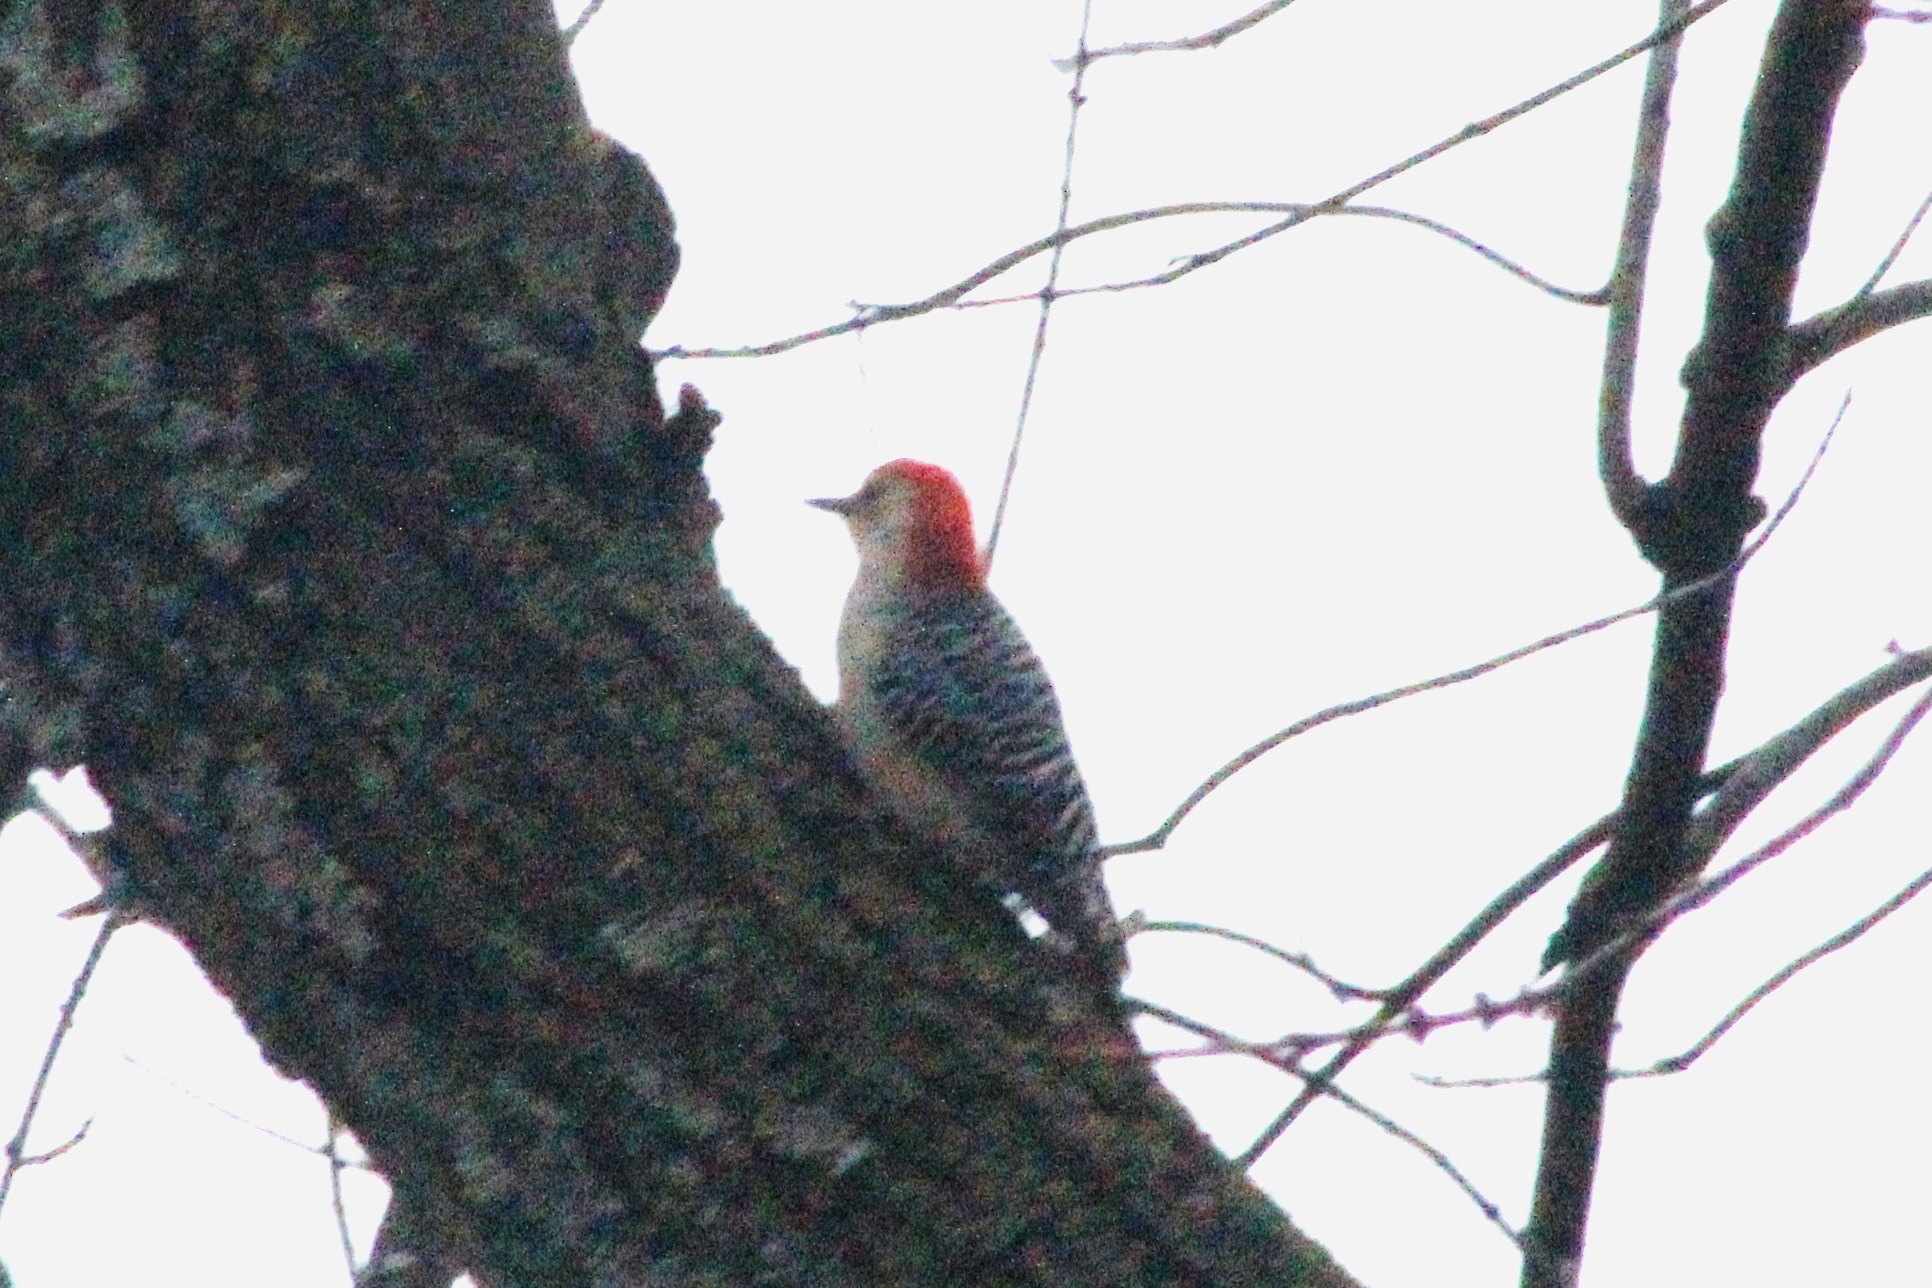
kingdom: Animalia
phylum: Chordata
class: Aves
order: Piciformes
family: Picidae
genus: Melanerpes
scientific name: Melanerpes carolinus
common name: Red-bellied woodpecker
